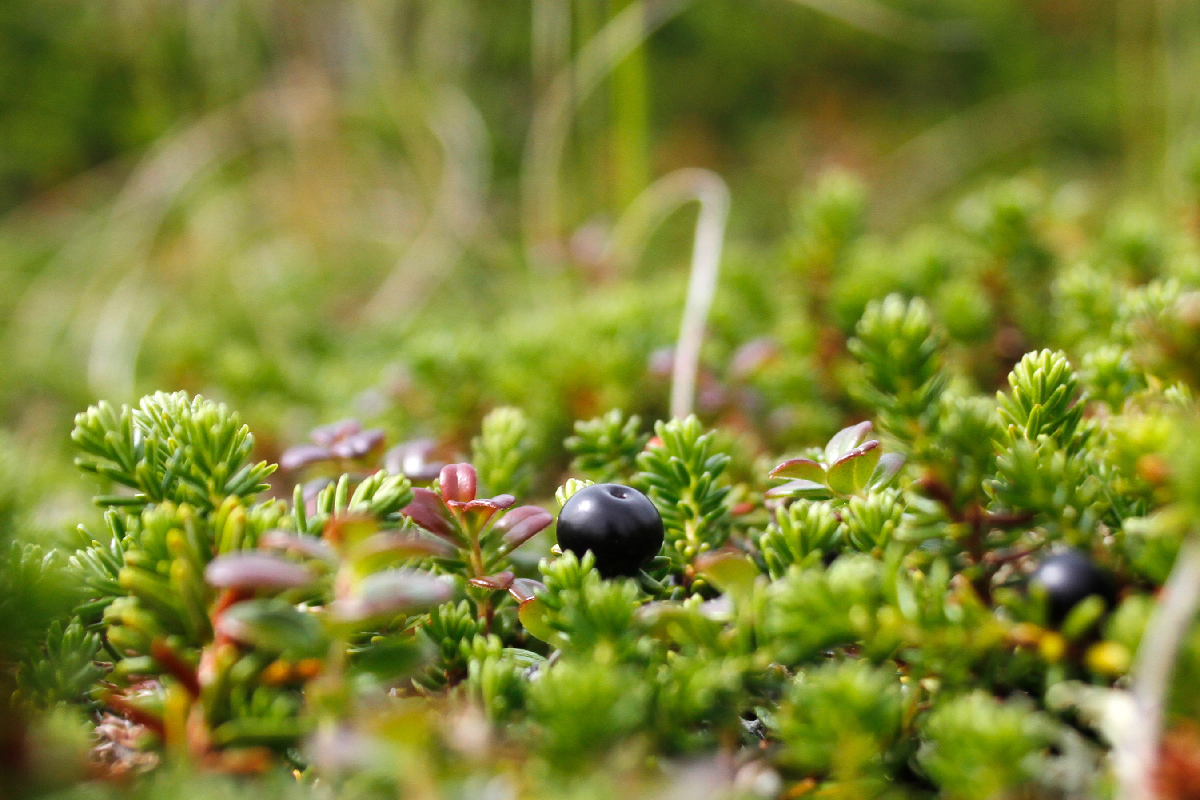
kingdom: Plantae
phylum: Tracheophyta
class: Magnoliopsida
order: Ericales
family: Ericaceae
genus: Empetrum
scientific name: Empetrum nigrum
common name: Black crowberry
